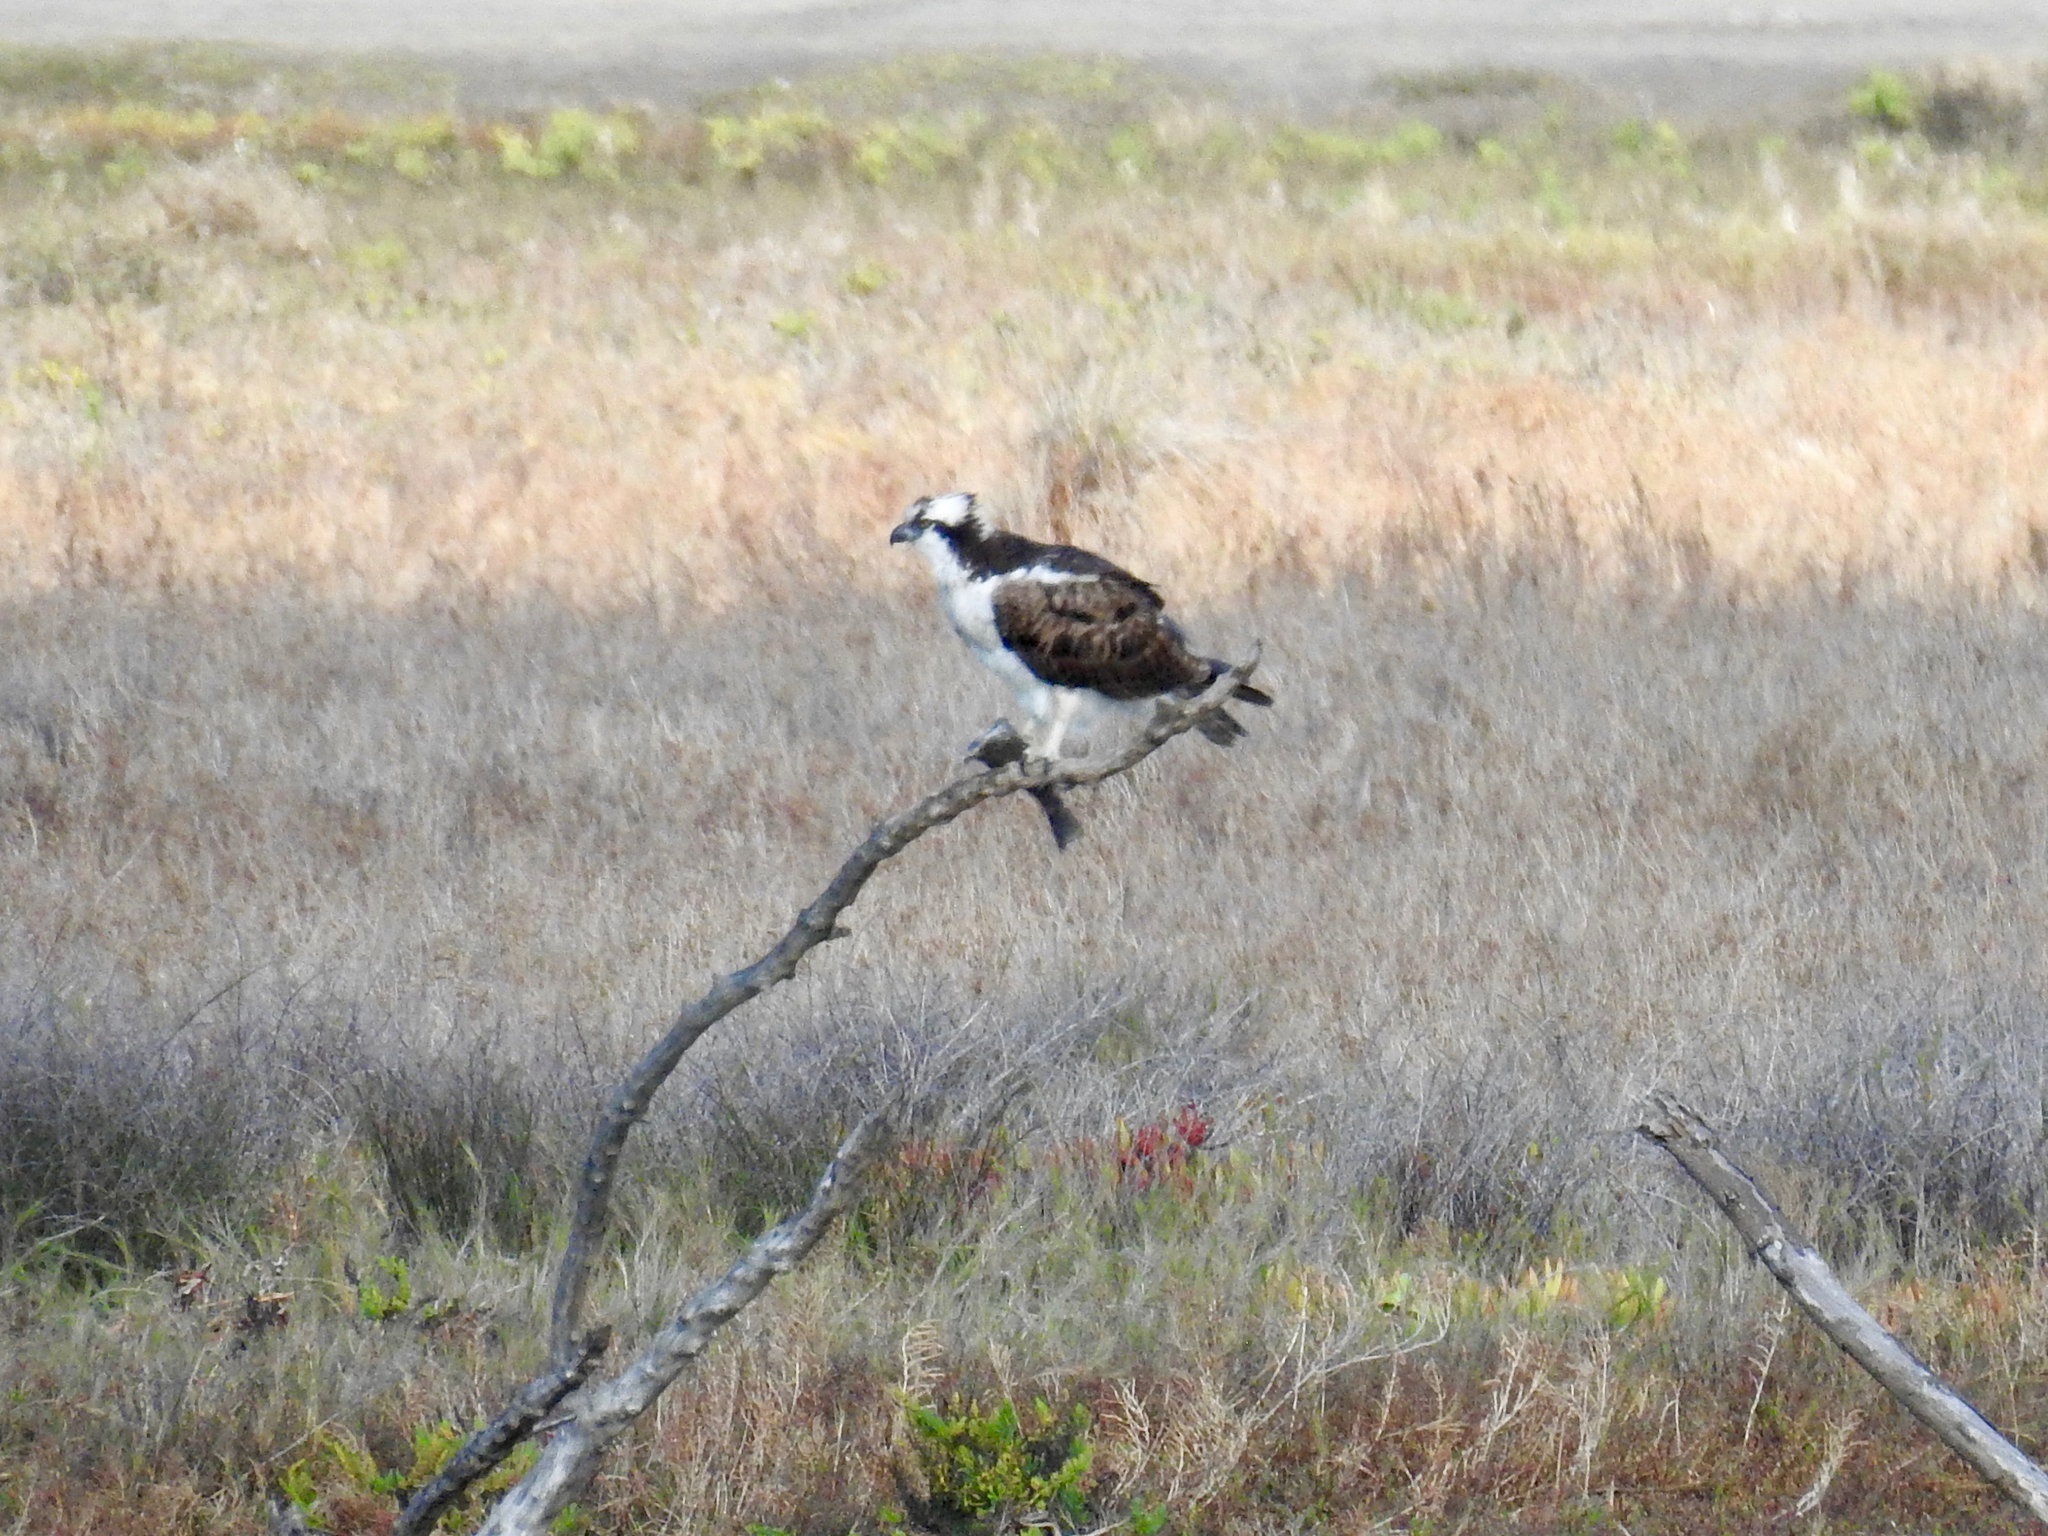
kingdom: Animalia
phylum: Chordata
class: Aves
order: Accipitriformes
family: Pandionidae
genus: Pandion
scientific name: Pandion haliaetus
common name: Osprey
